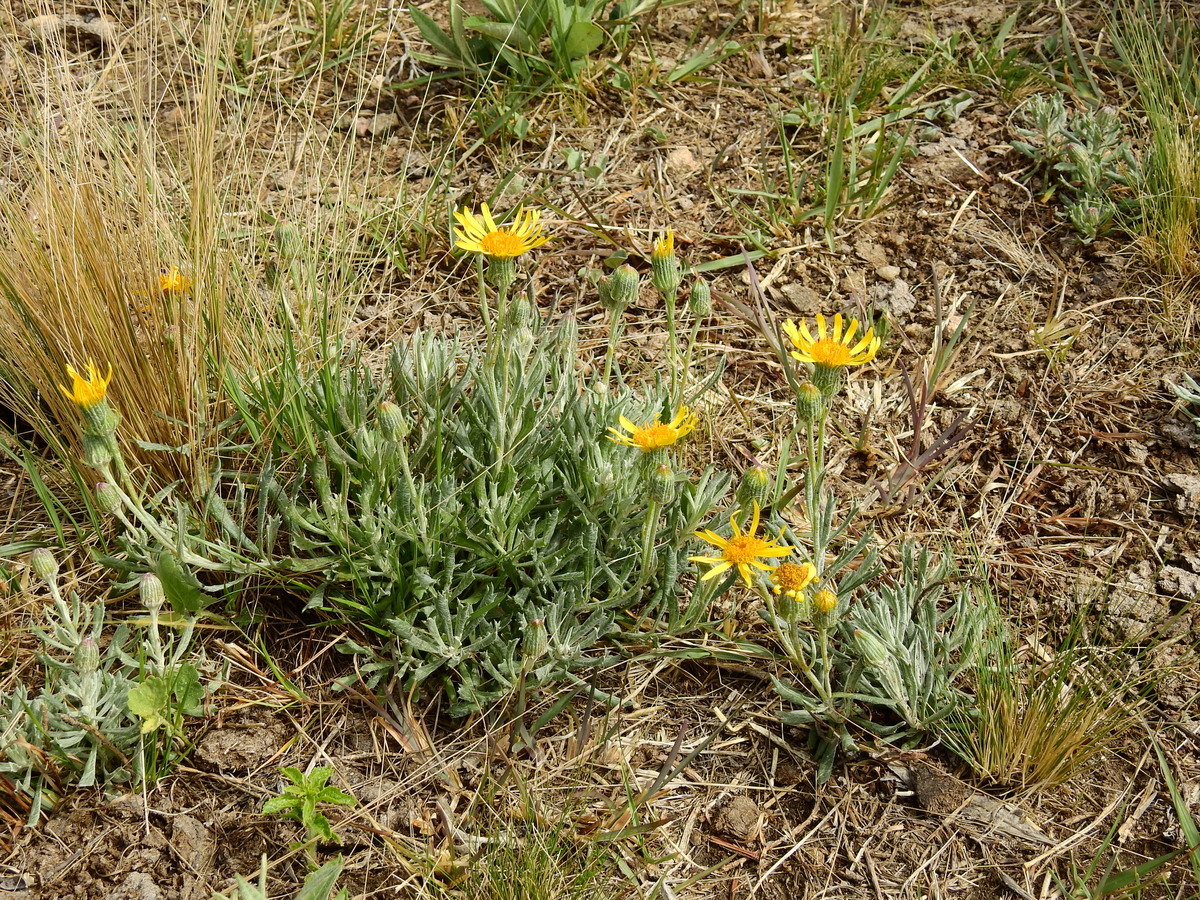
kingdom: Plantae
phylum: Tracheophyta
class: Magnoliopsida
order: Asterales
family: Asteraceae
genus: Senecio
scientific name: Senecio ceratophylloides
